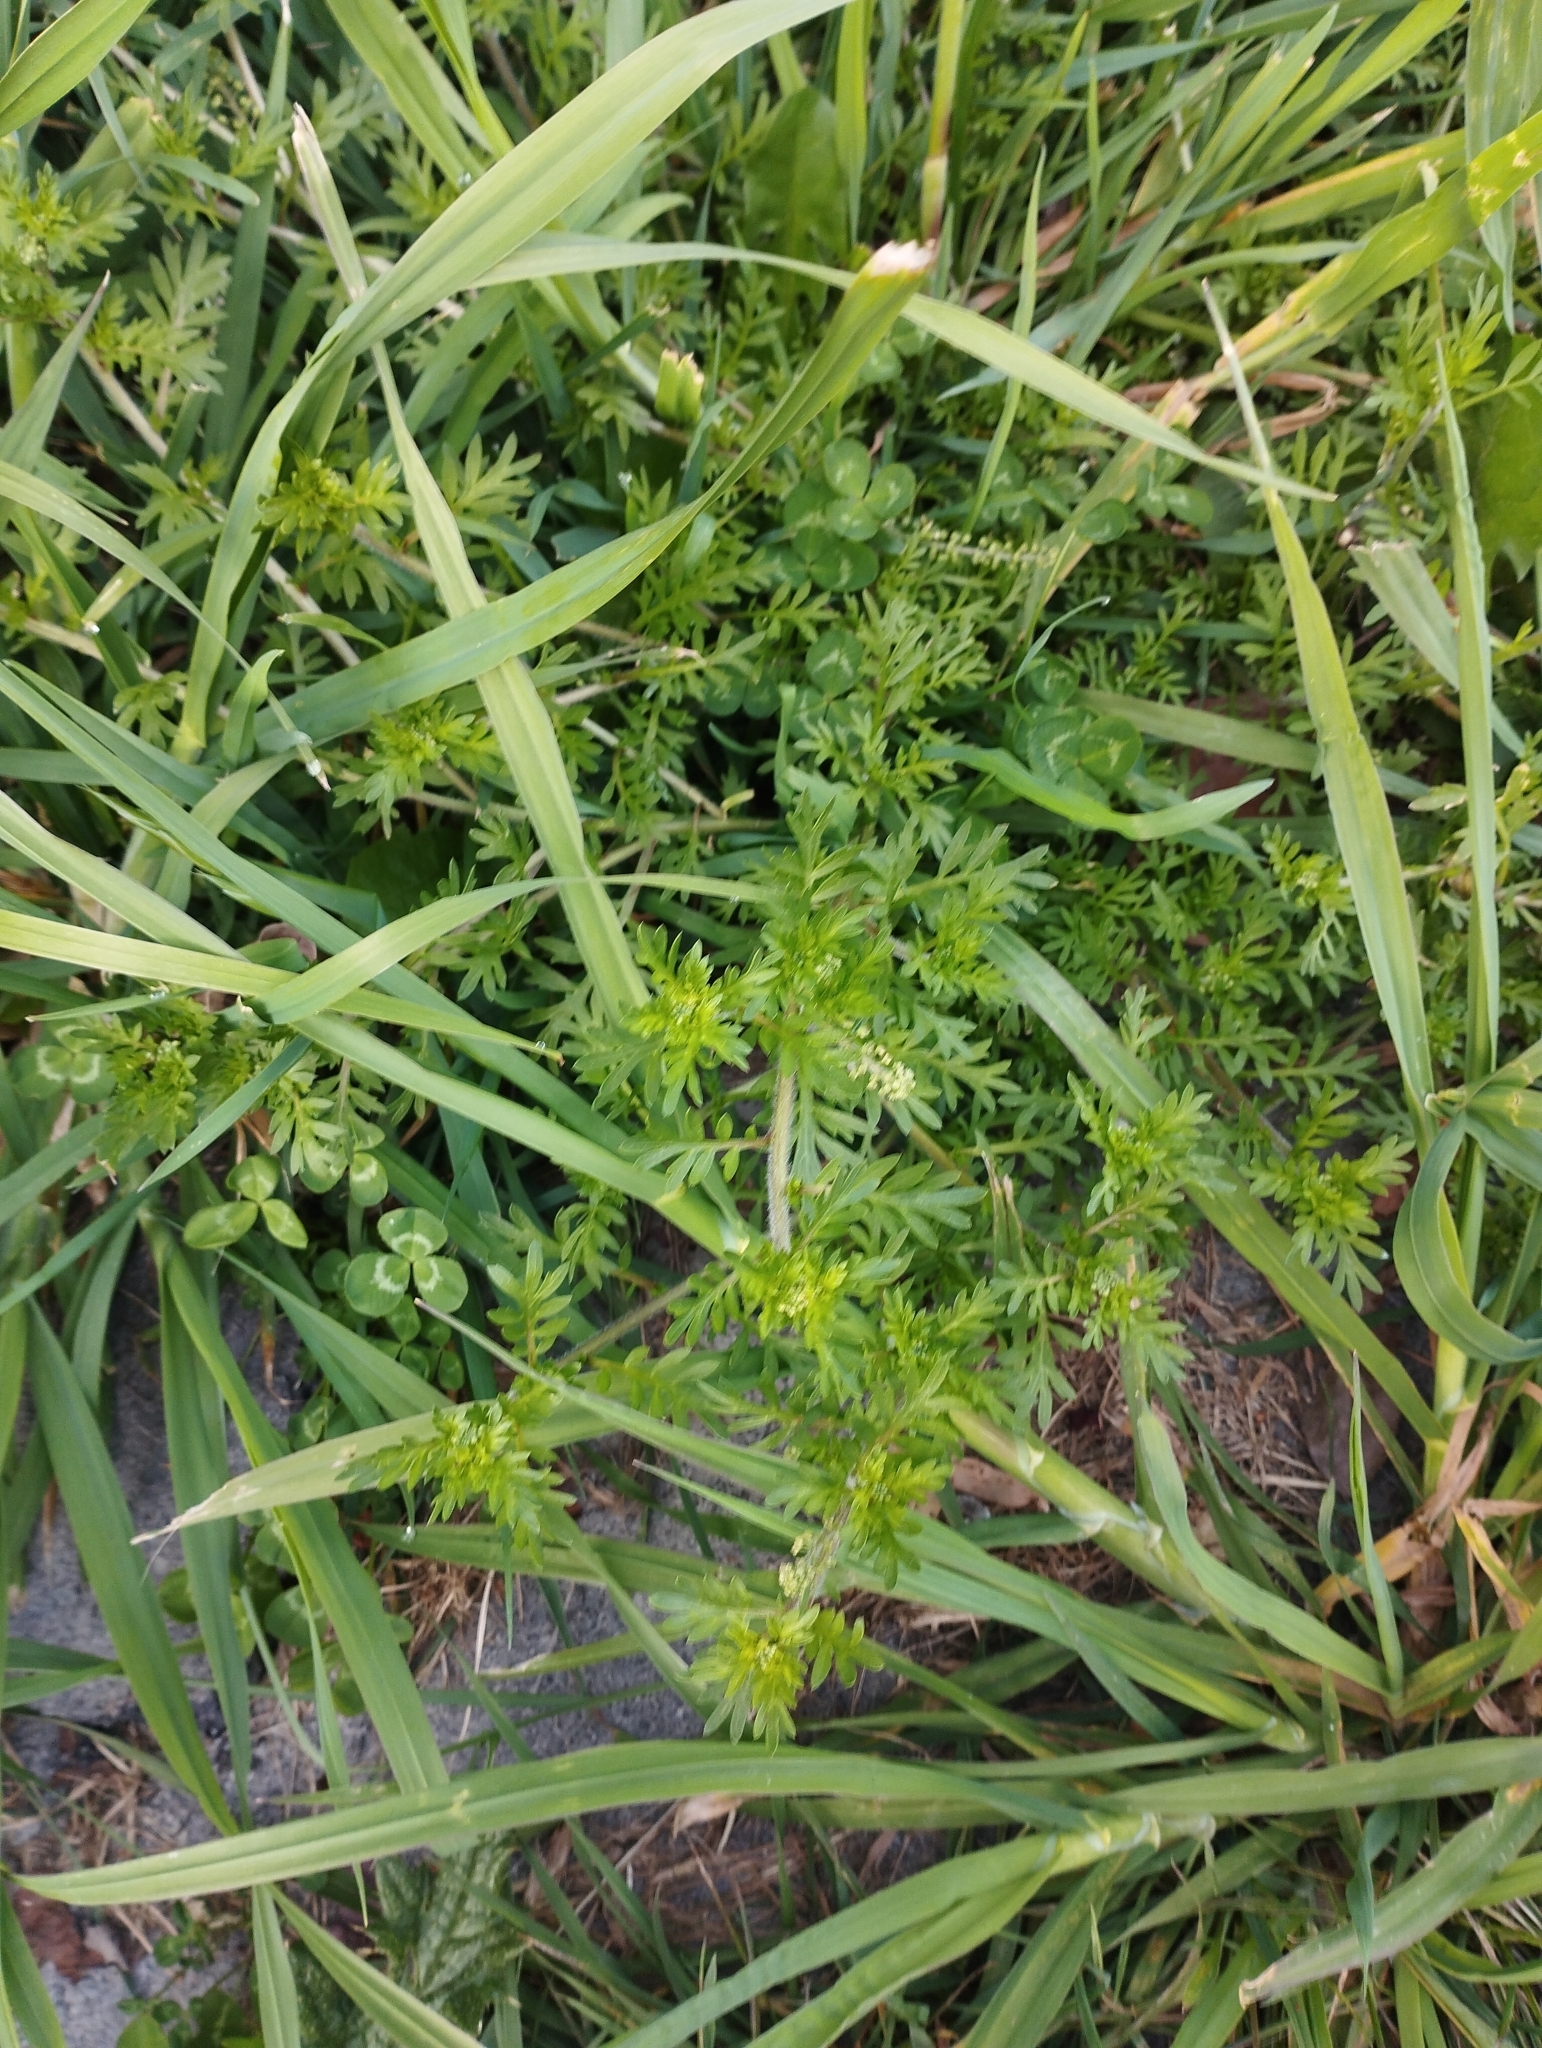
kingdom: Plantae
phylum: Tracheophyta
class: Magnoliopsida
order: Brassicales
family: Brassicaceae
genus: Lepidium
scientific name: Lepidium didymum
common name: Lesser swinecress
